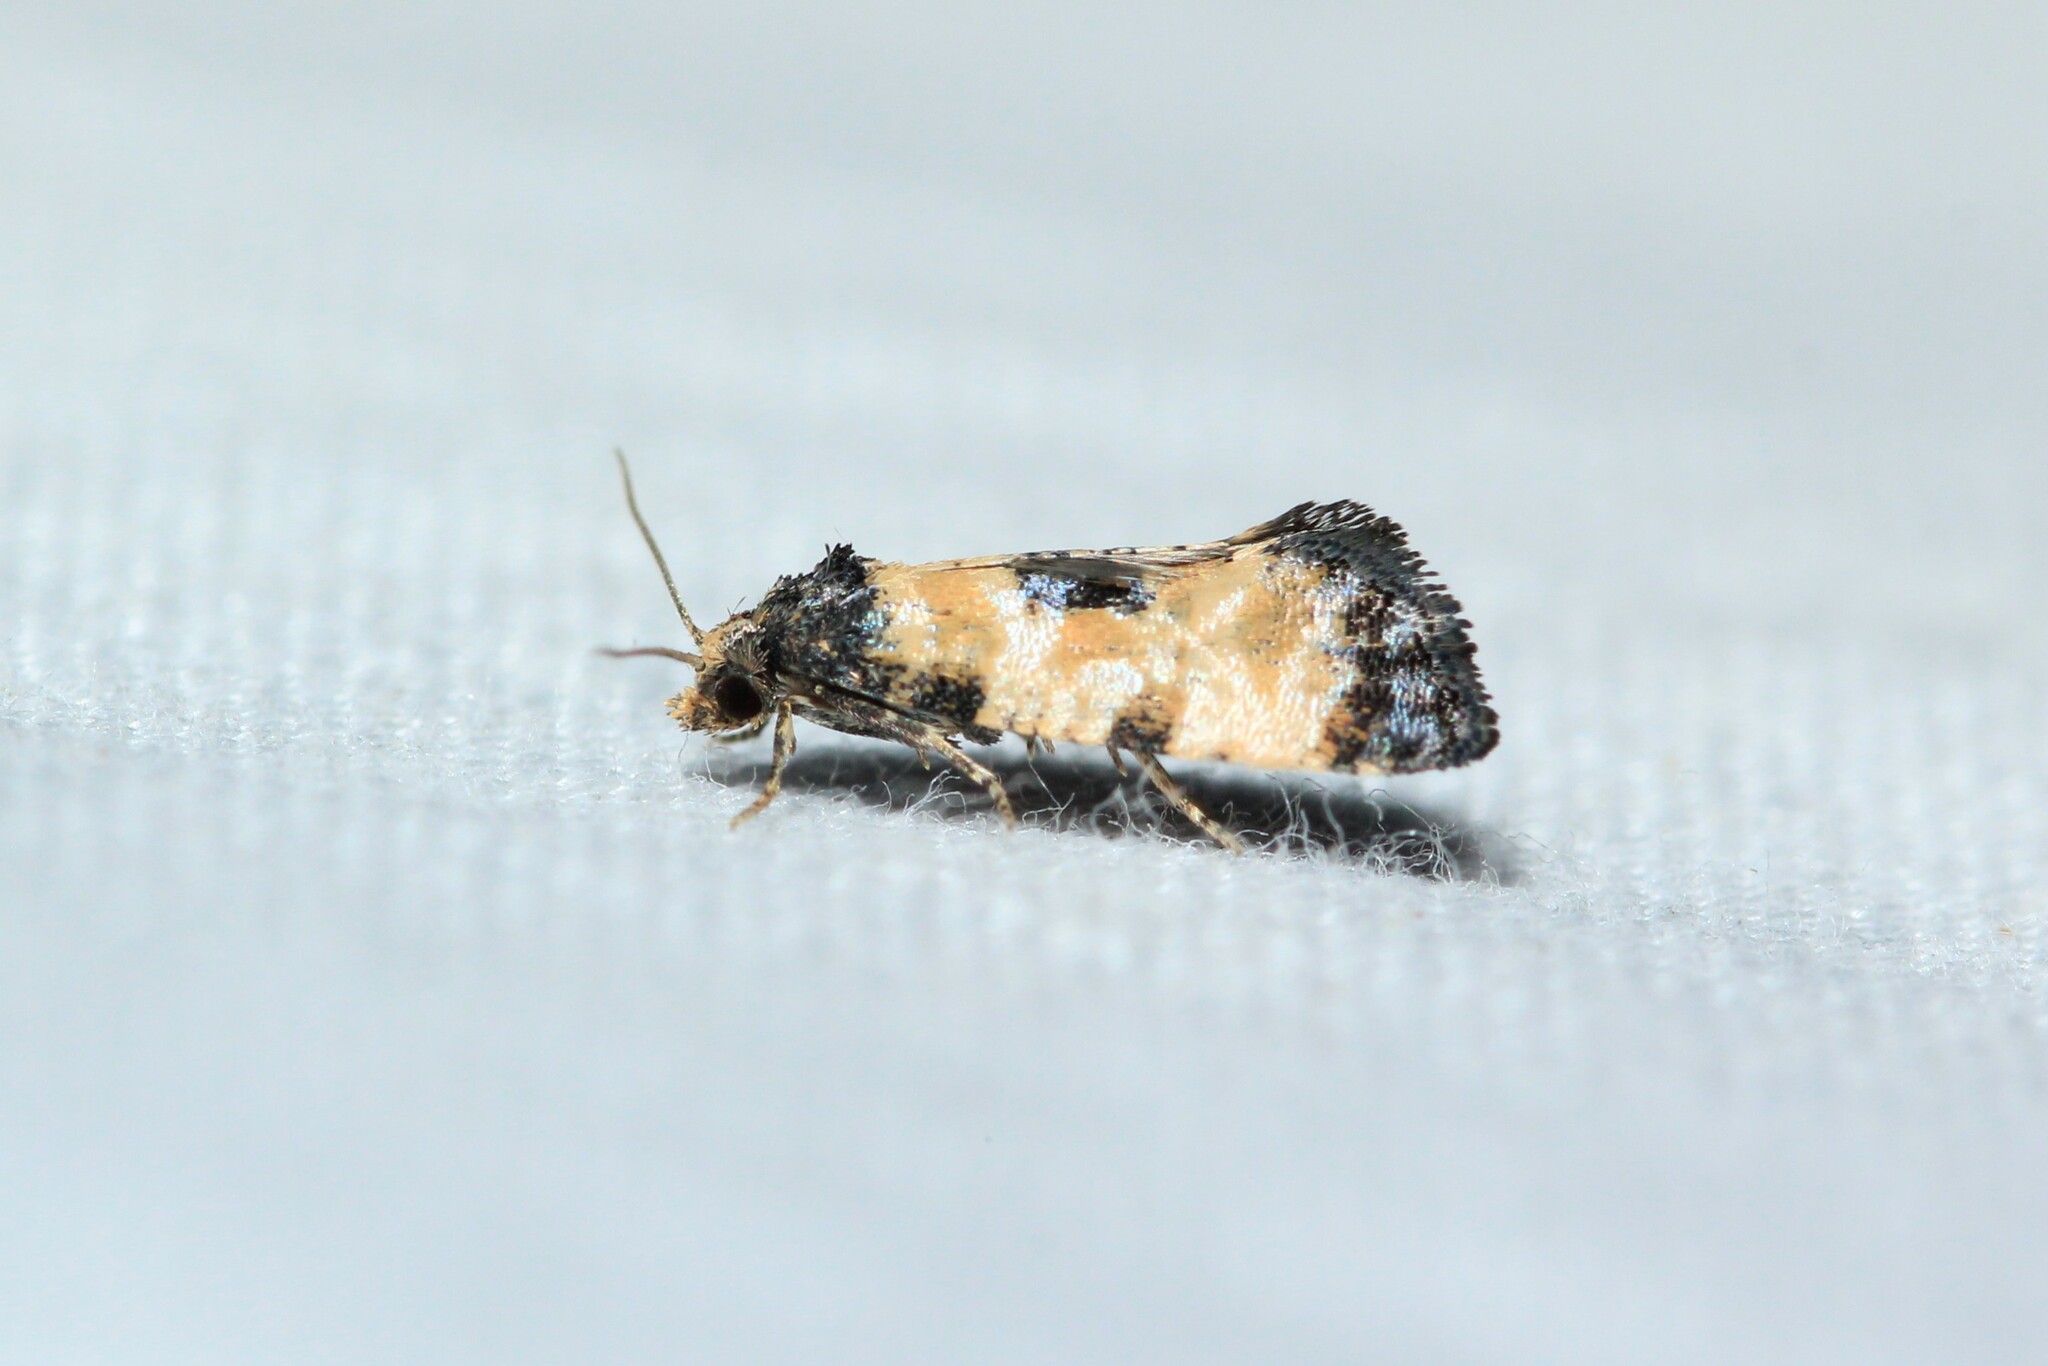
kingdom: Animalia
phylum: Arthropoda
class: Insecta
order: Lepidoptera
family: Tortricidae
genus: Cochylis
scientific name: Cochylis dubitana
